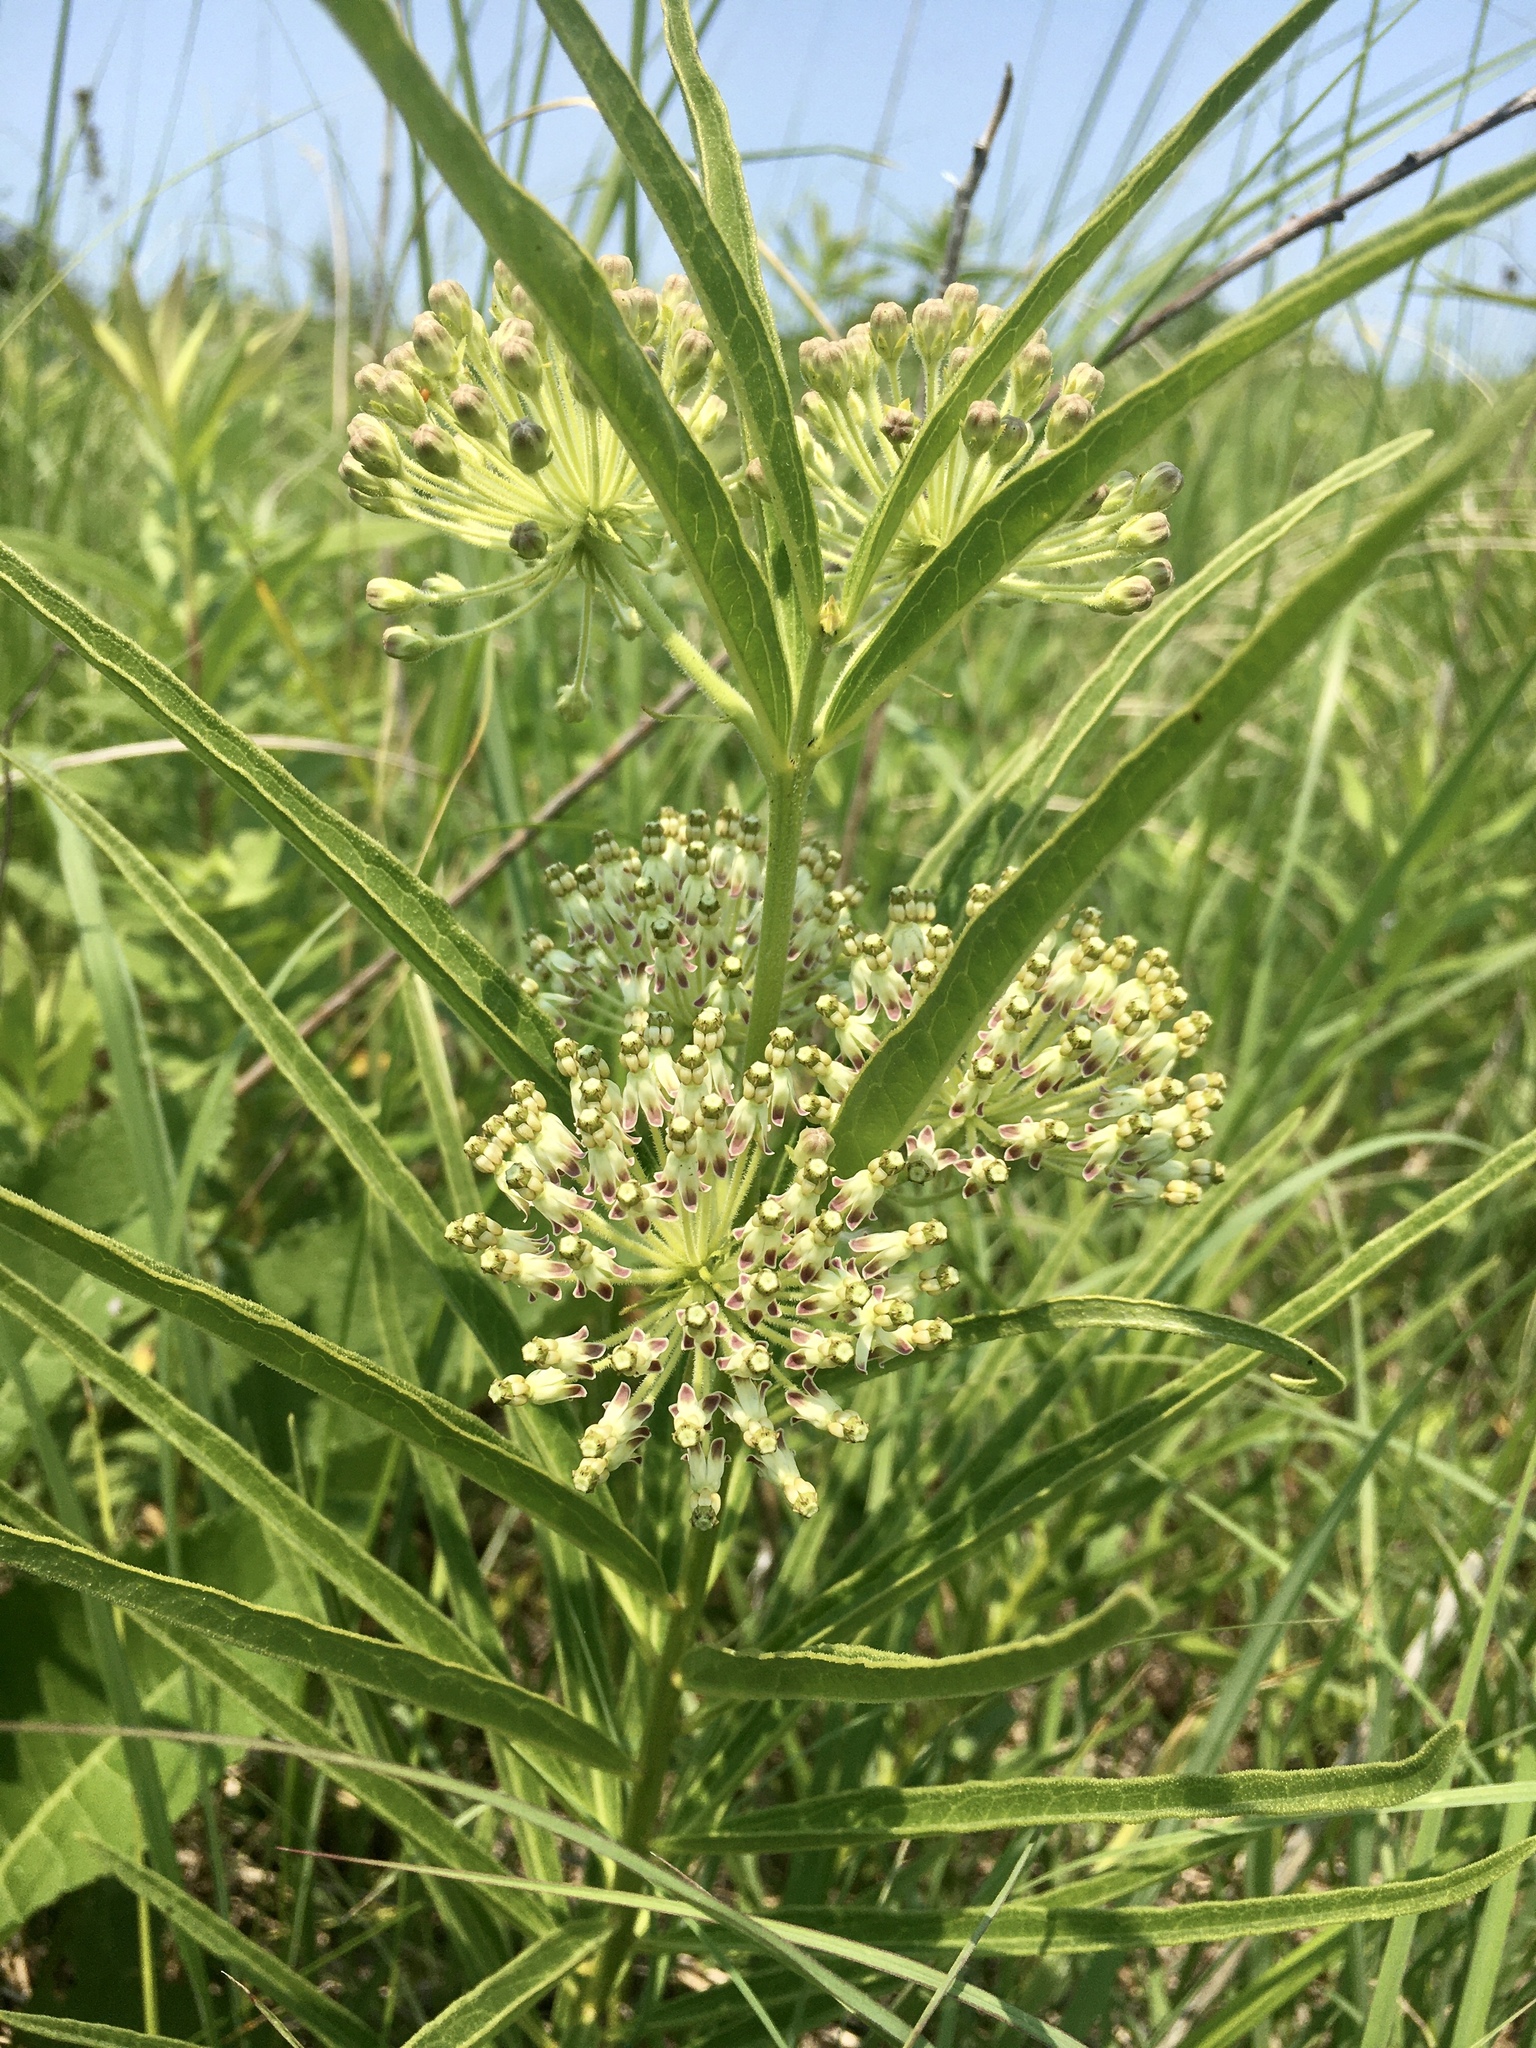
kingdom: Plantae
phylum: Tracheophyta
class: Magnoliopsida
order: Gentianales
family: Apocynaceae
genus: Asclepias
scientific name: Asclepias hirtella
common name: Prairie milkweed
